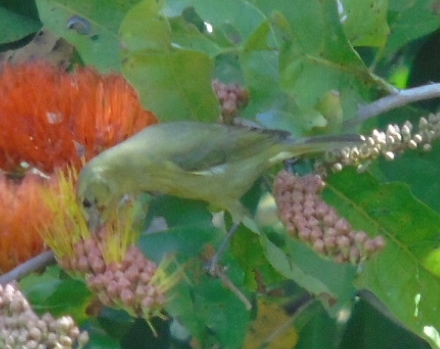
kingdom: Animalia
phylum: Chordata
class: Aves
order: Passeriformes
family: Parulidae
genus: Leiothlypis
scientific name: Leiothlypis celata
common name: Orange-crowned warbler
